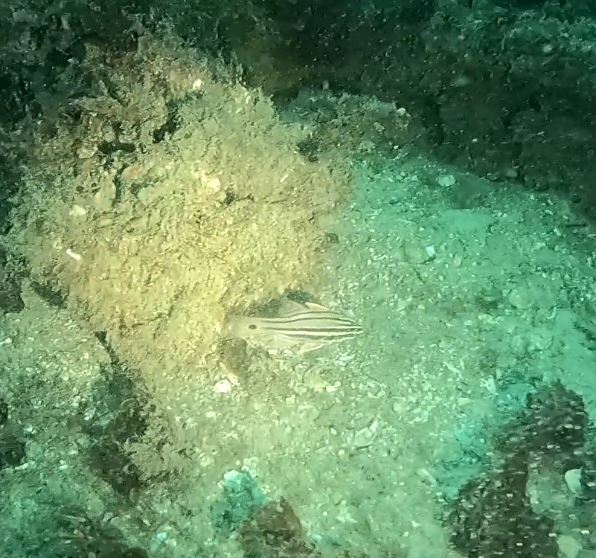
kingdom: Animalia
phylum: Chordata
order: Perciformes
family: Apogonidae
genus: Ostorhinchus
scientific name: Ostorhinchus limenus
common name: Four-banded soldierfish
